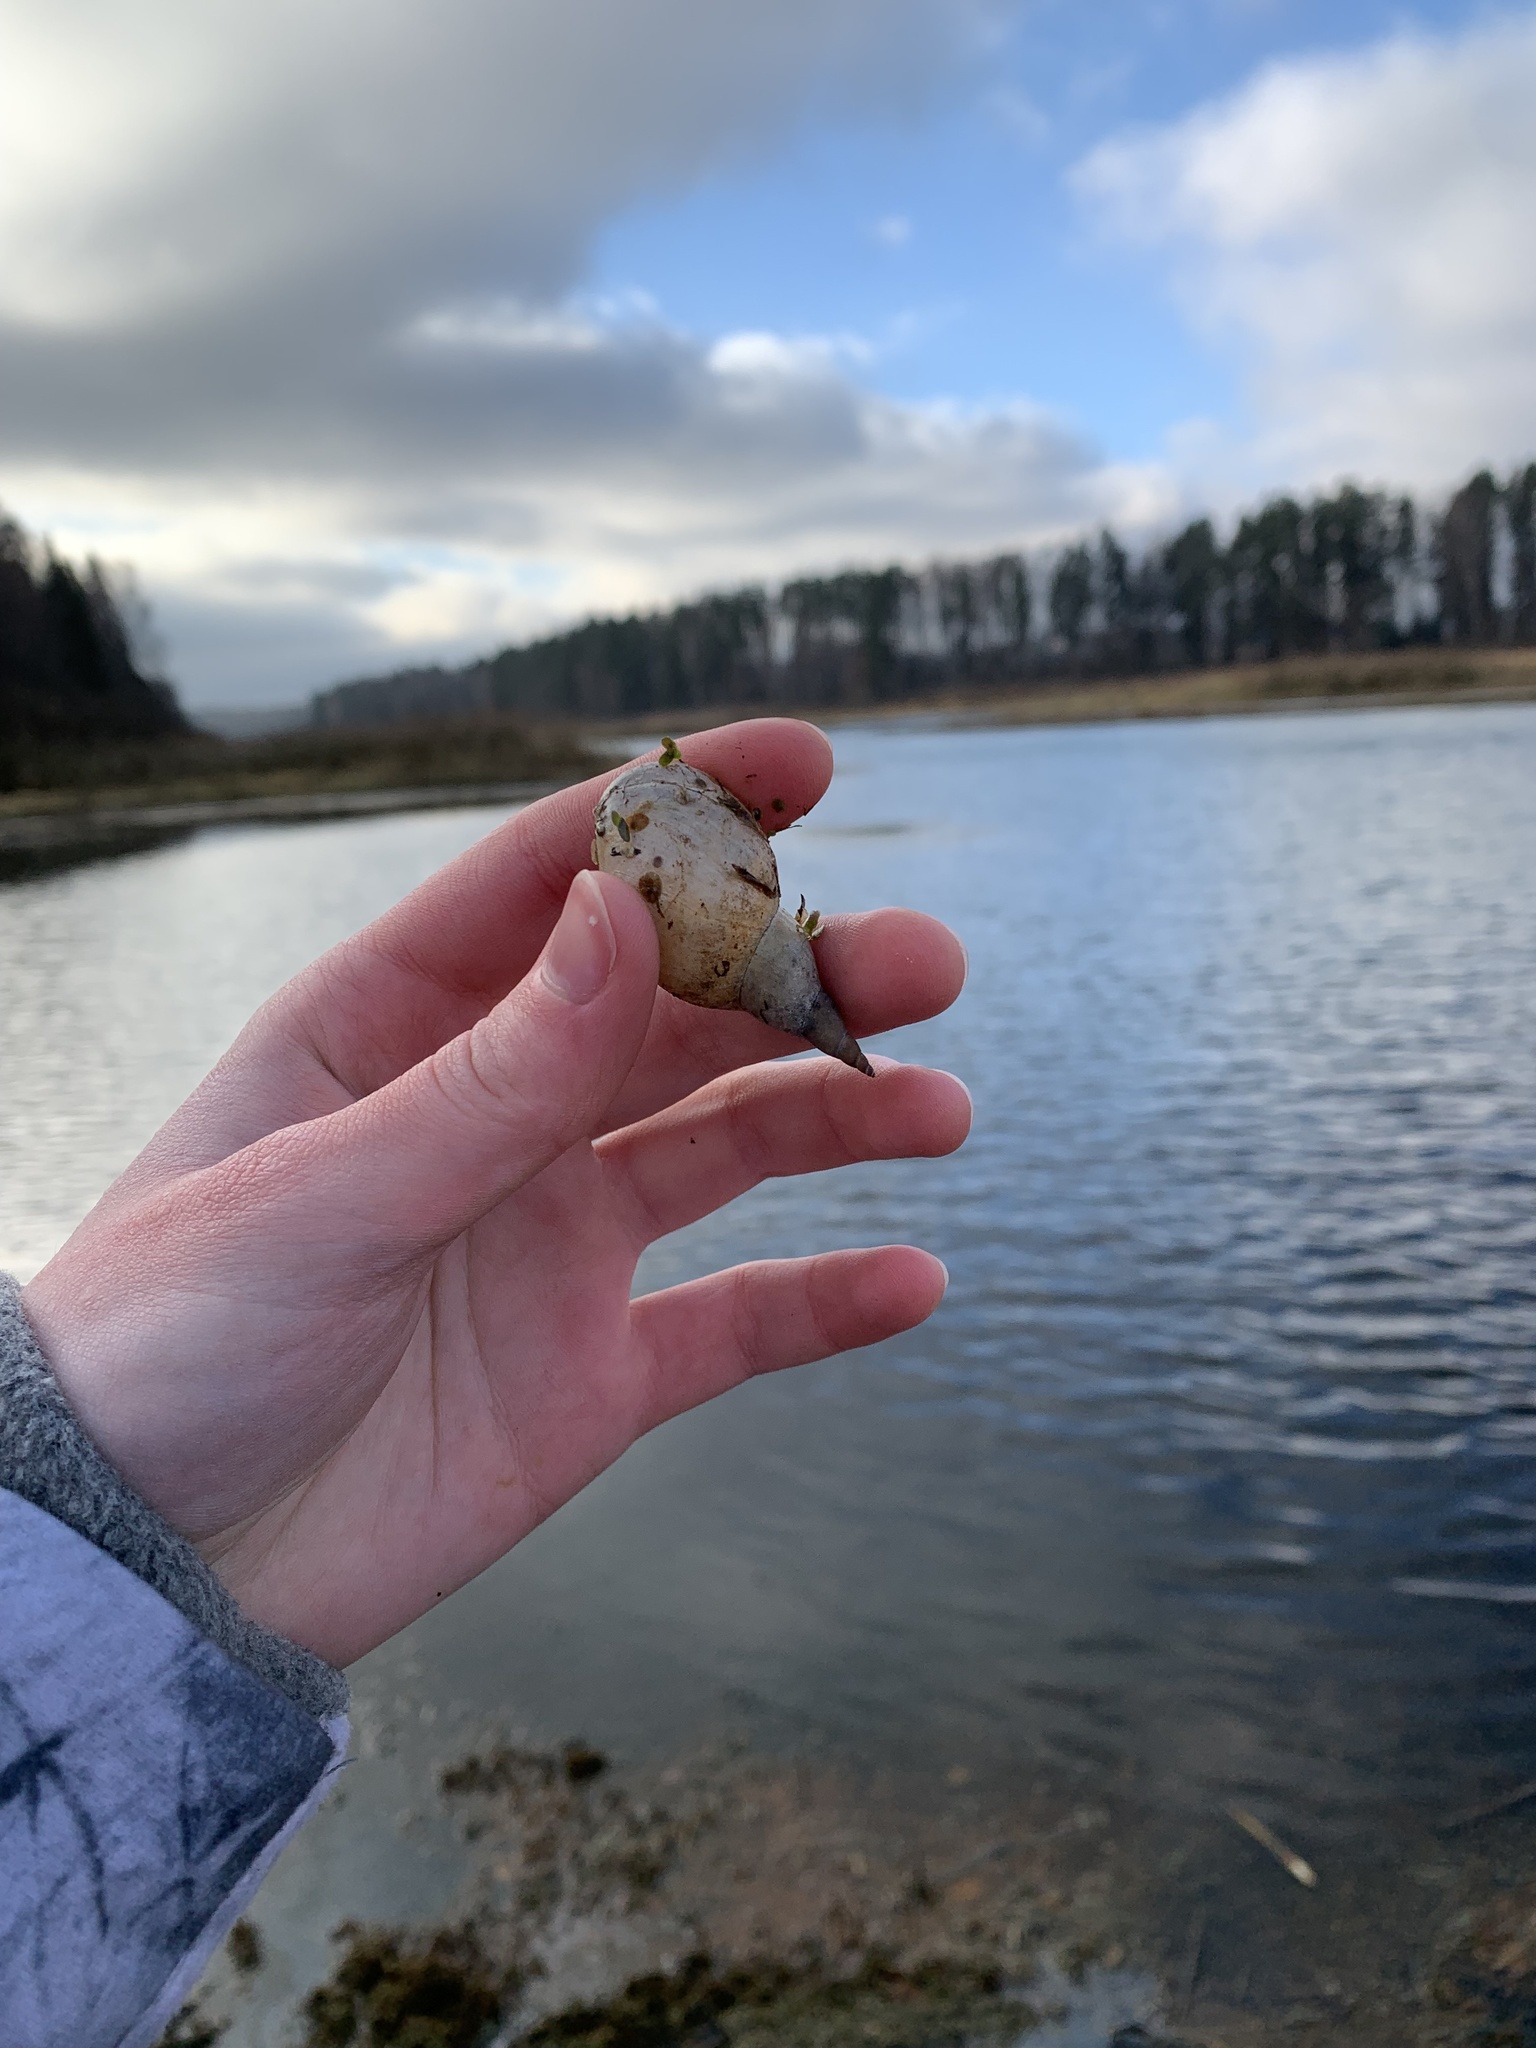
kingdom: Animalia
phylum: Mollusca
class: Gastropoda
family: Lymnaeidae
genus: Lymnaea
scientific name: Lymnaea stagnalis
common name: Great pond snail
